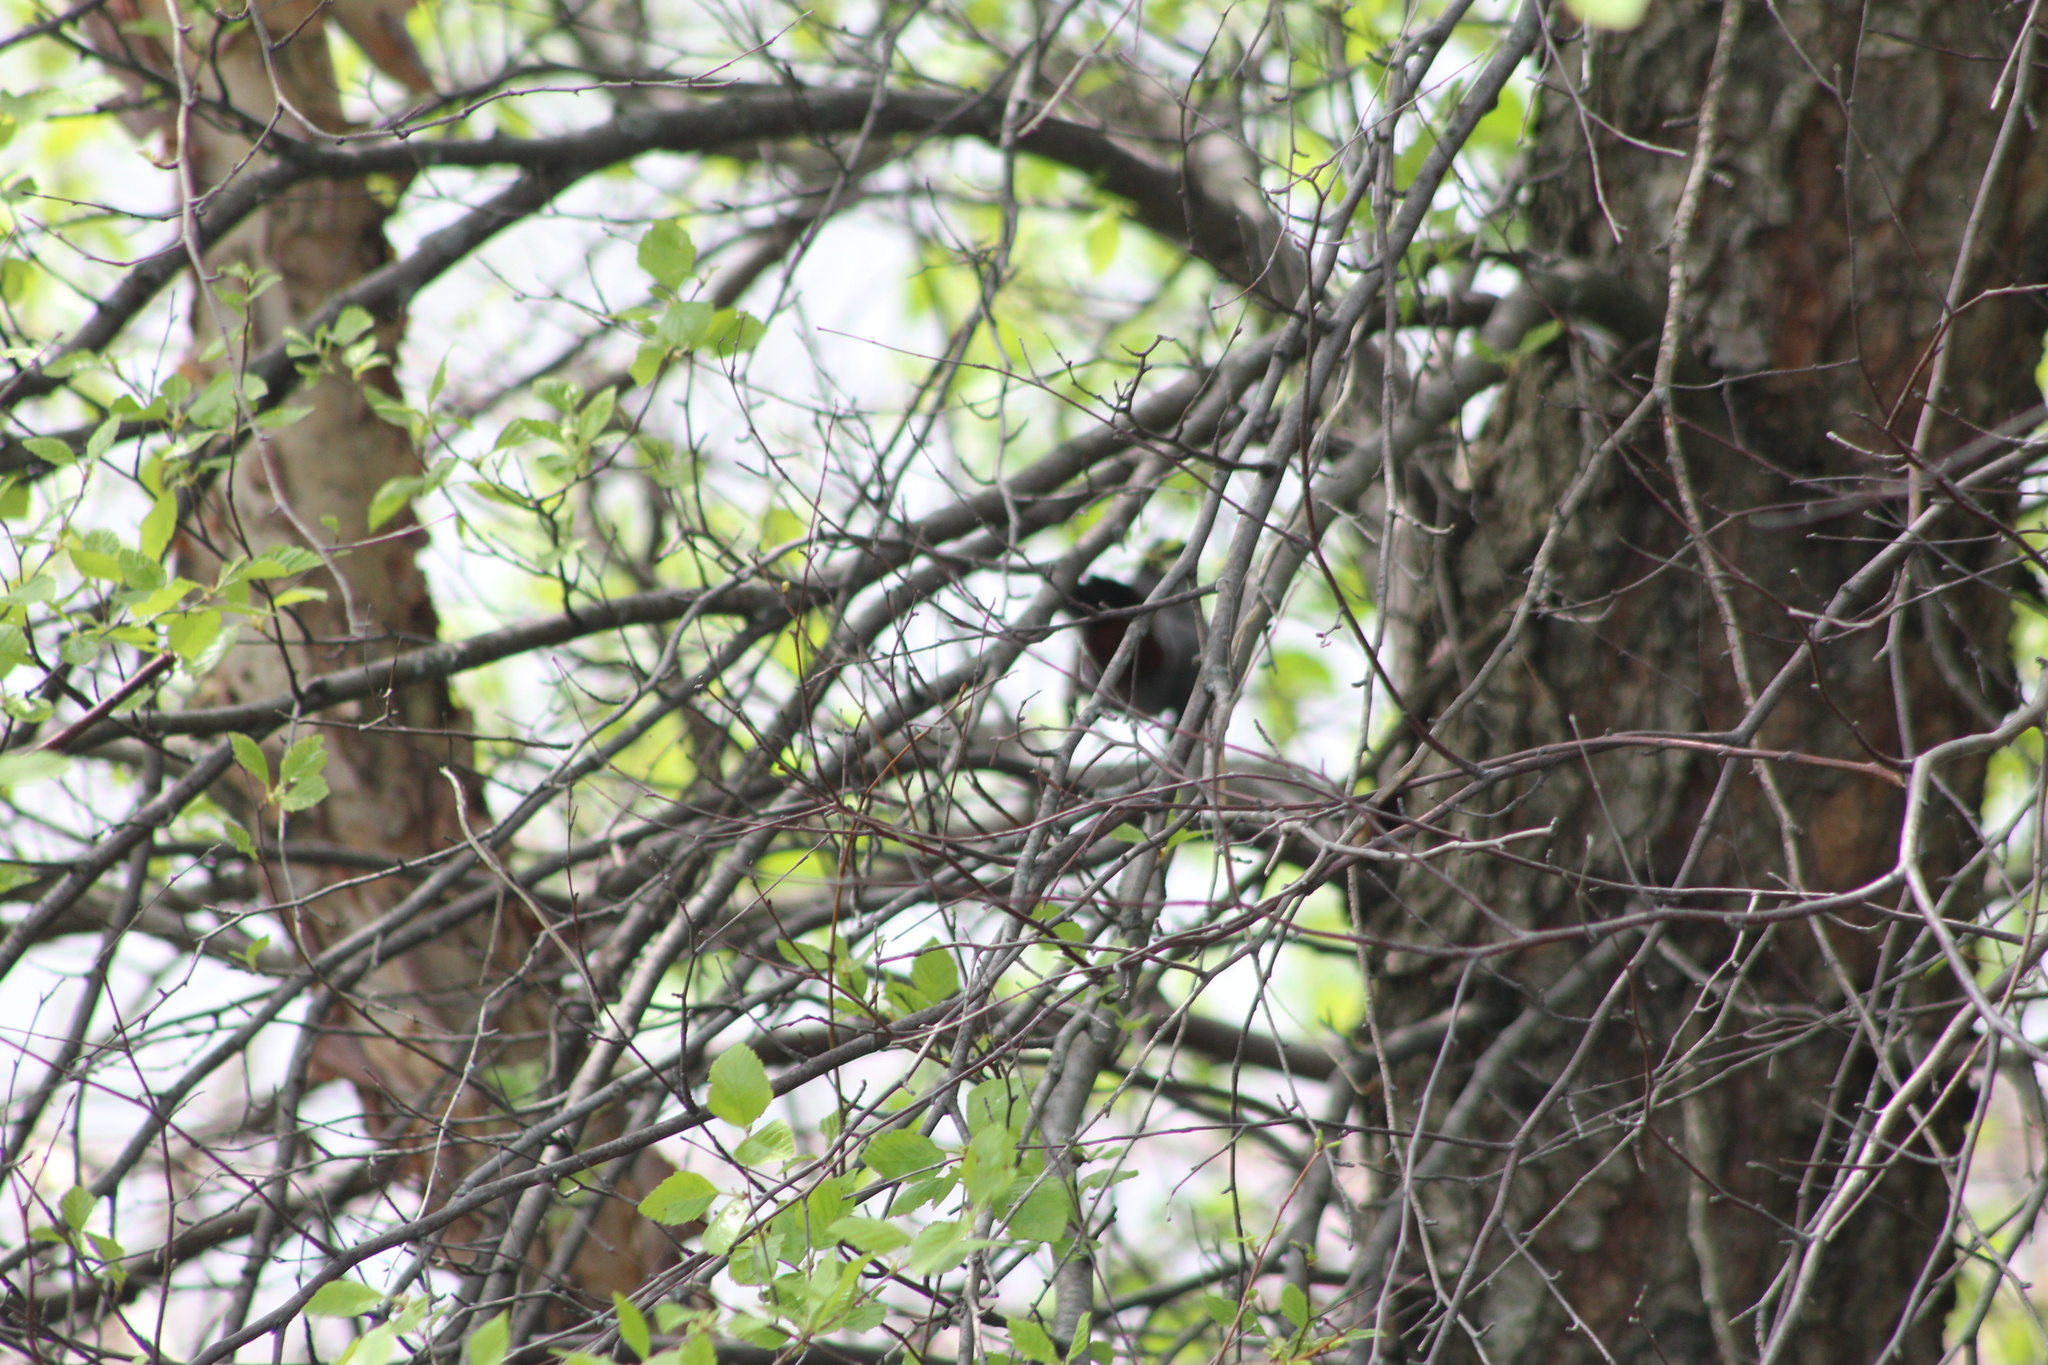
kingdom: Animalia
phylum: Chordata
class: Aves
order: Passeriformes
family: Mimidae
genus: Dumetella
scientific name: Dumetella carolinensis
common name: Gray catbird
